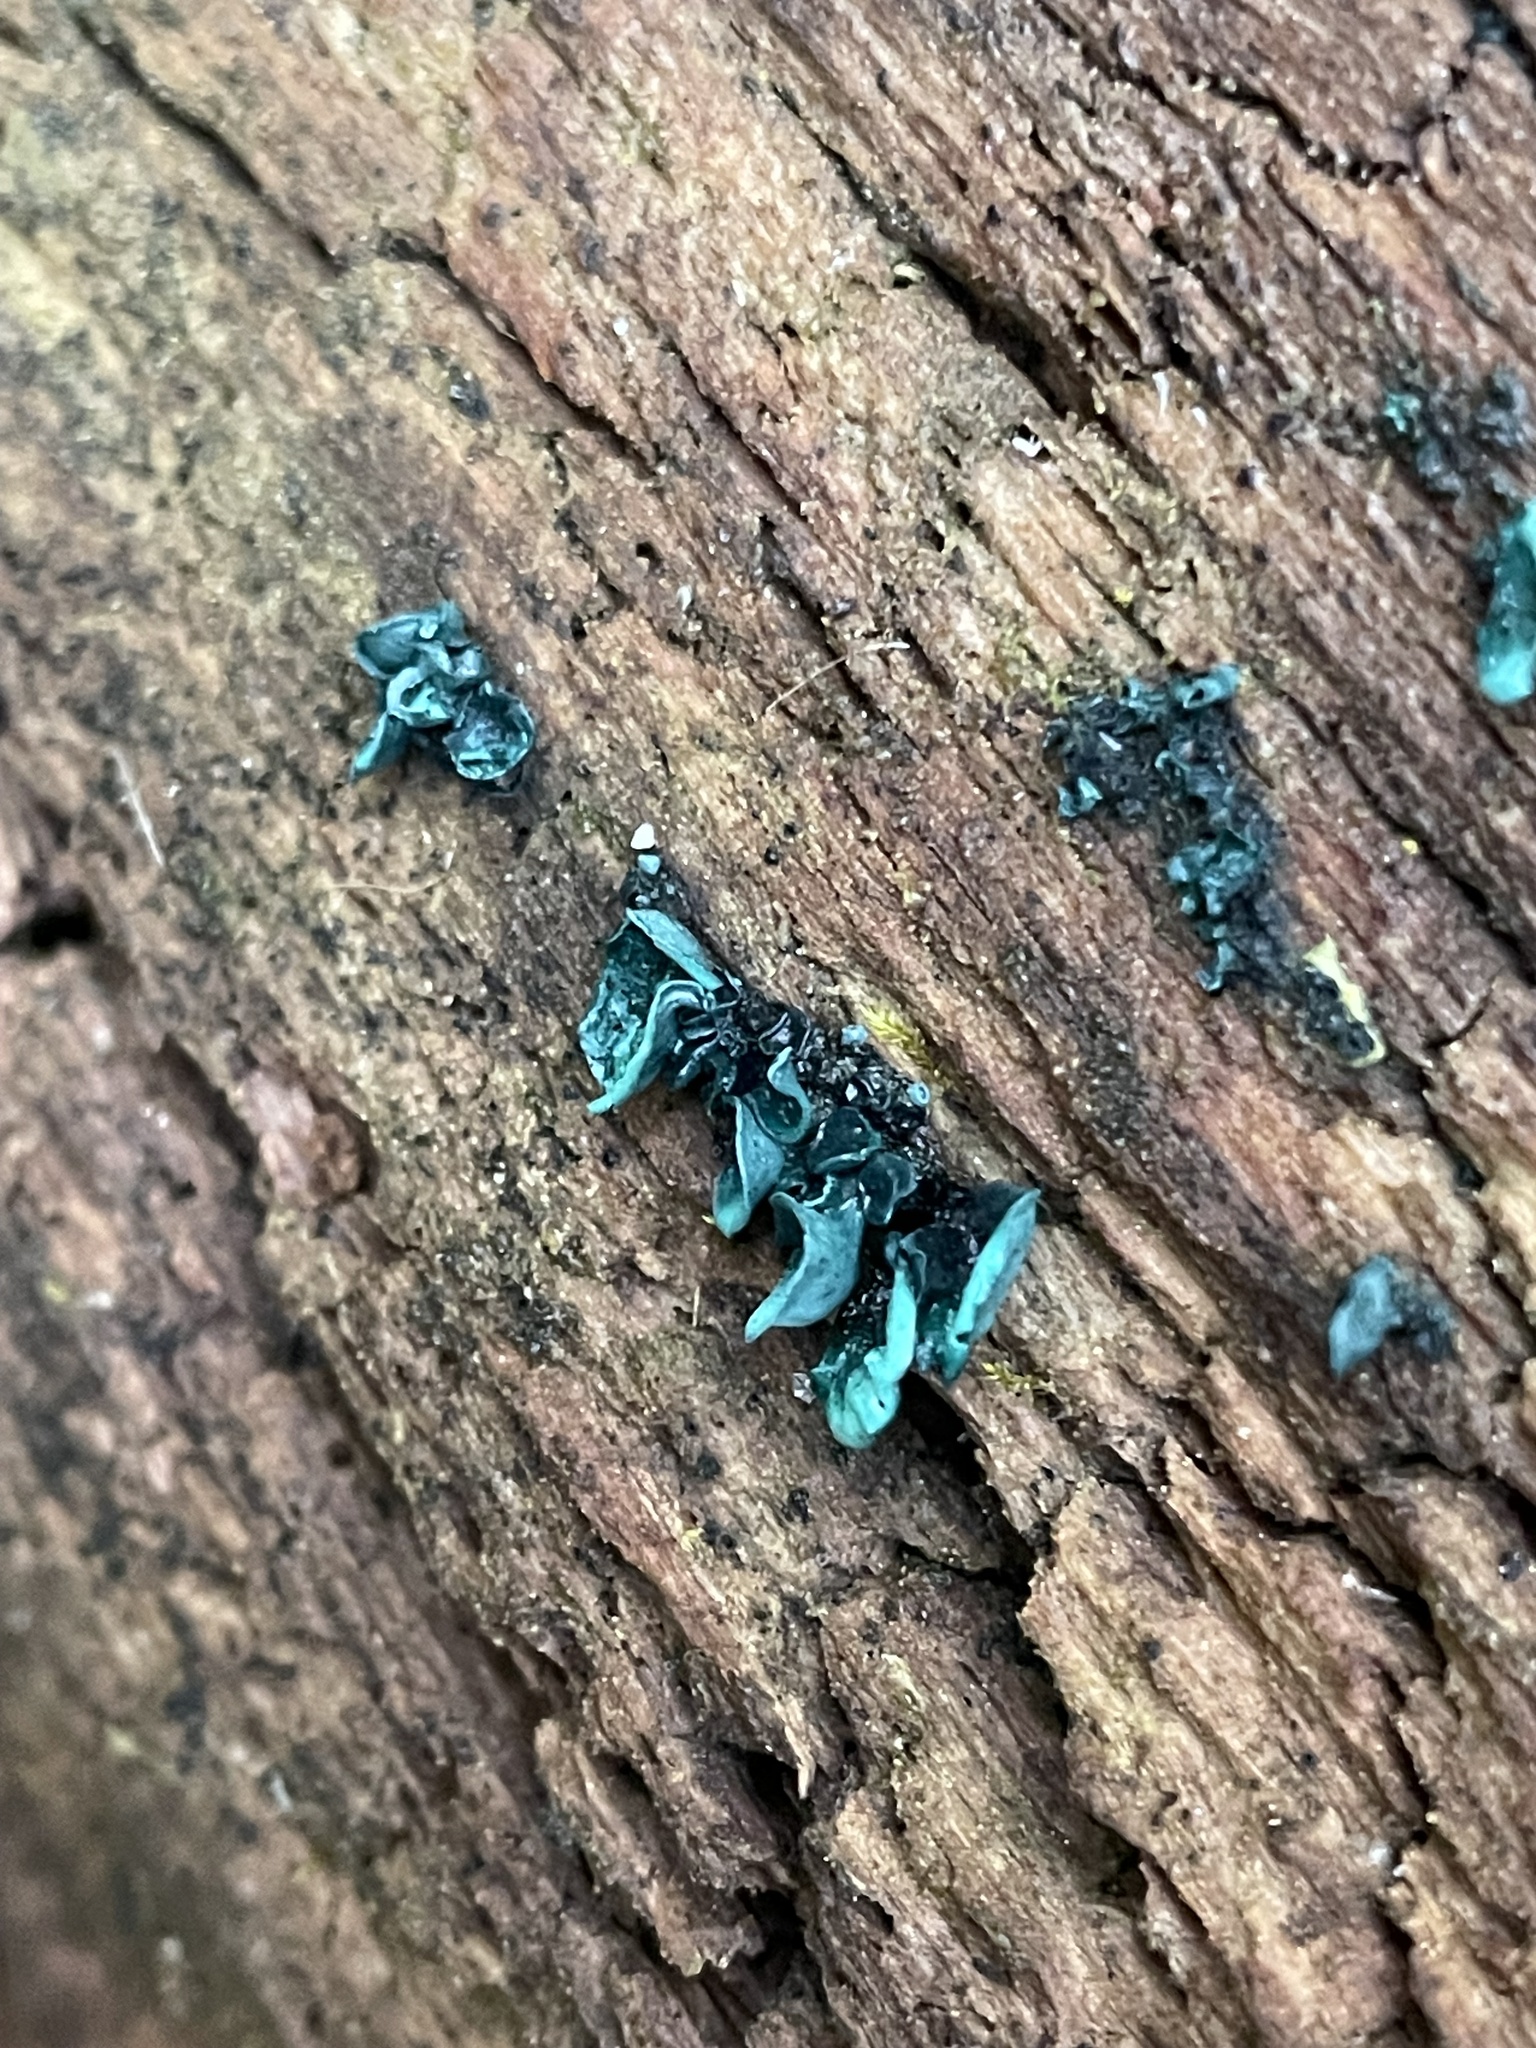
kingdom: Fungi
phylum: Ascomycota
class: Leotiomycetes
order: Helotiales
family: Chlorociboriaceae
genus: Chlorociboria
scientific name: Chlorociboria aeruginascens
